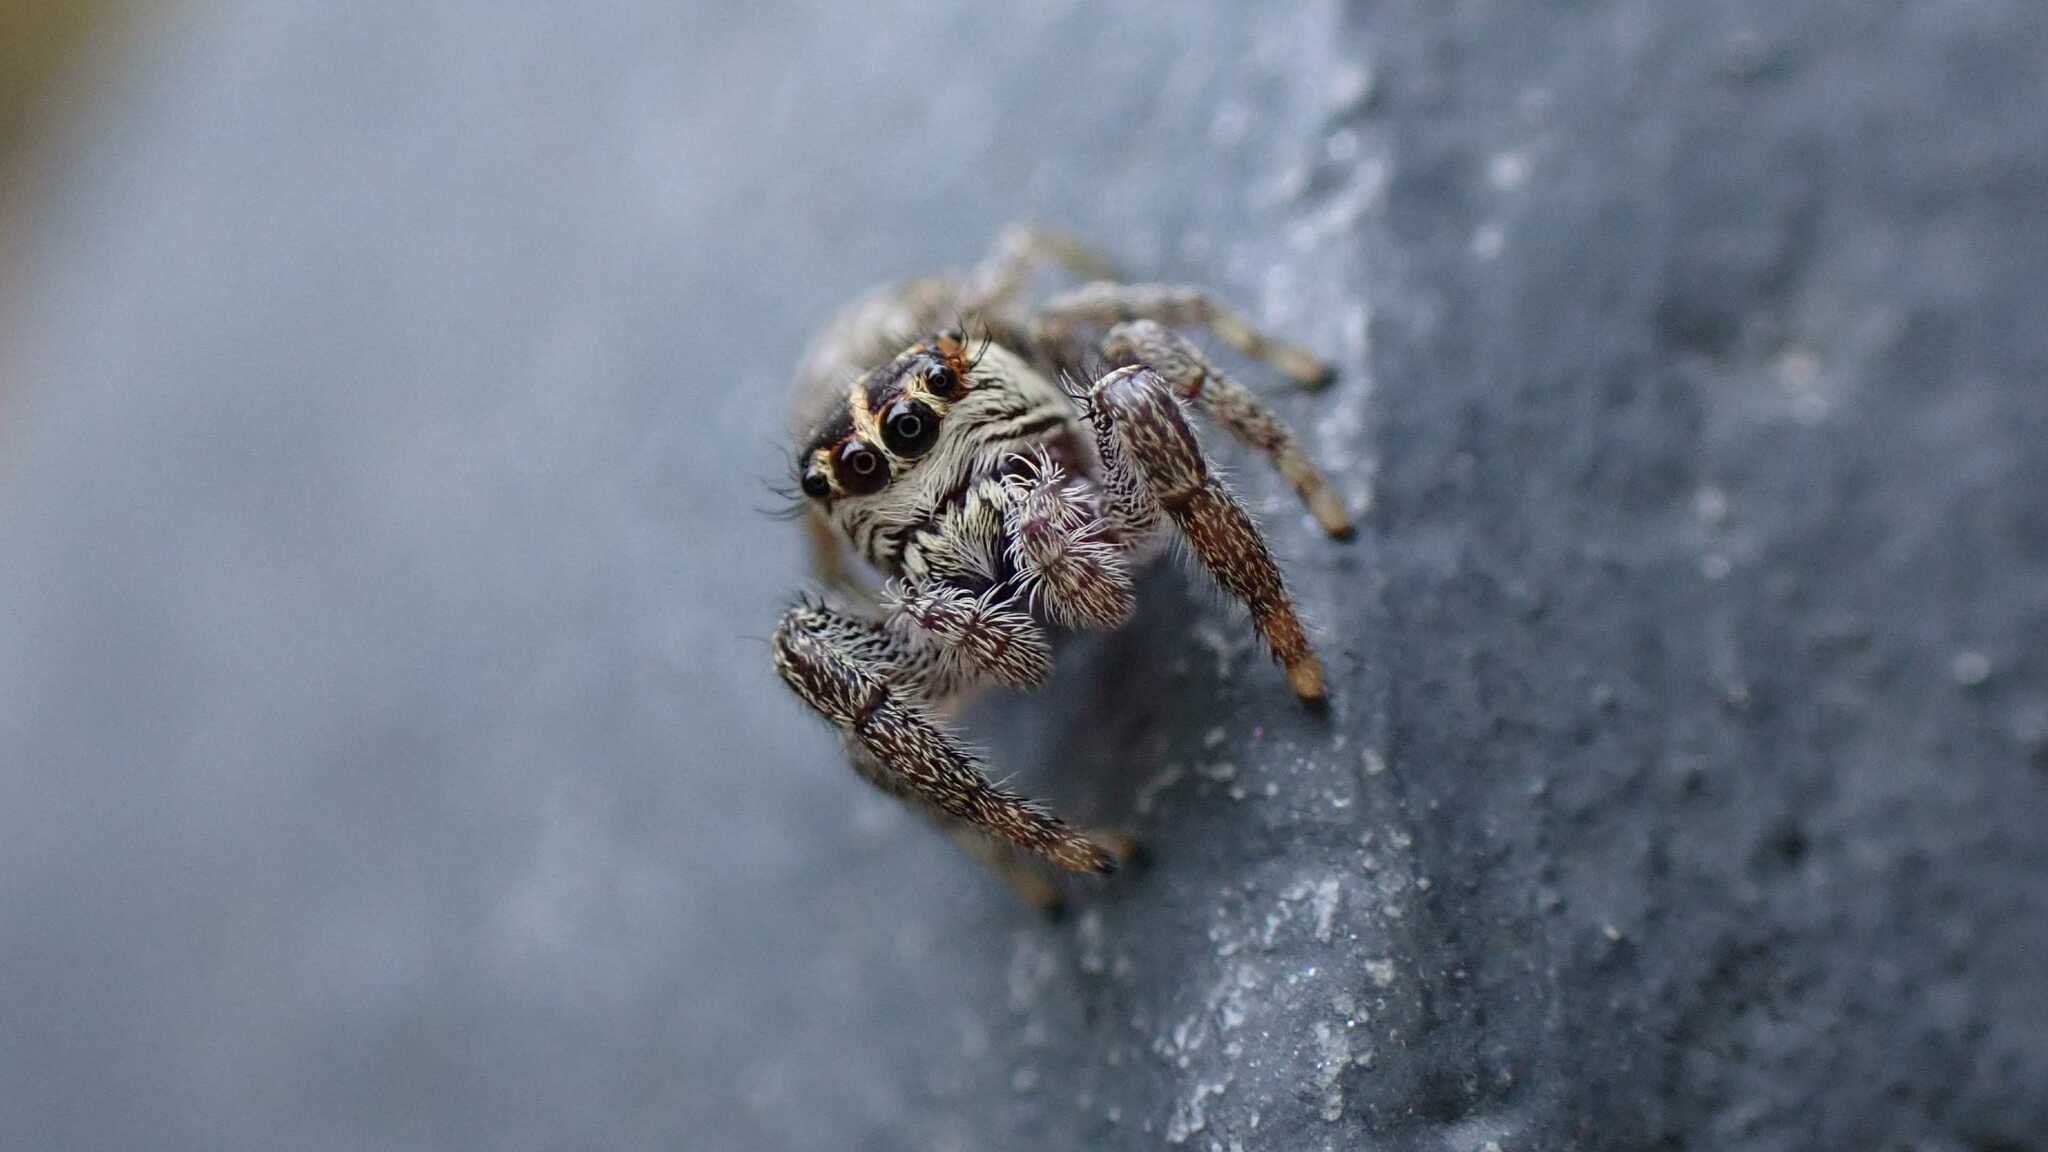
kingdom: Animalia
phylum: Arthropoda
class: Arachnida
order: Araneae
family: Salticidae
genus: Macaroeris
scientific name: Macaroeris nidicolens
